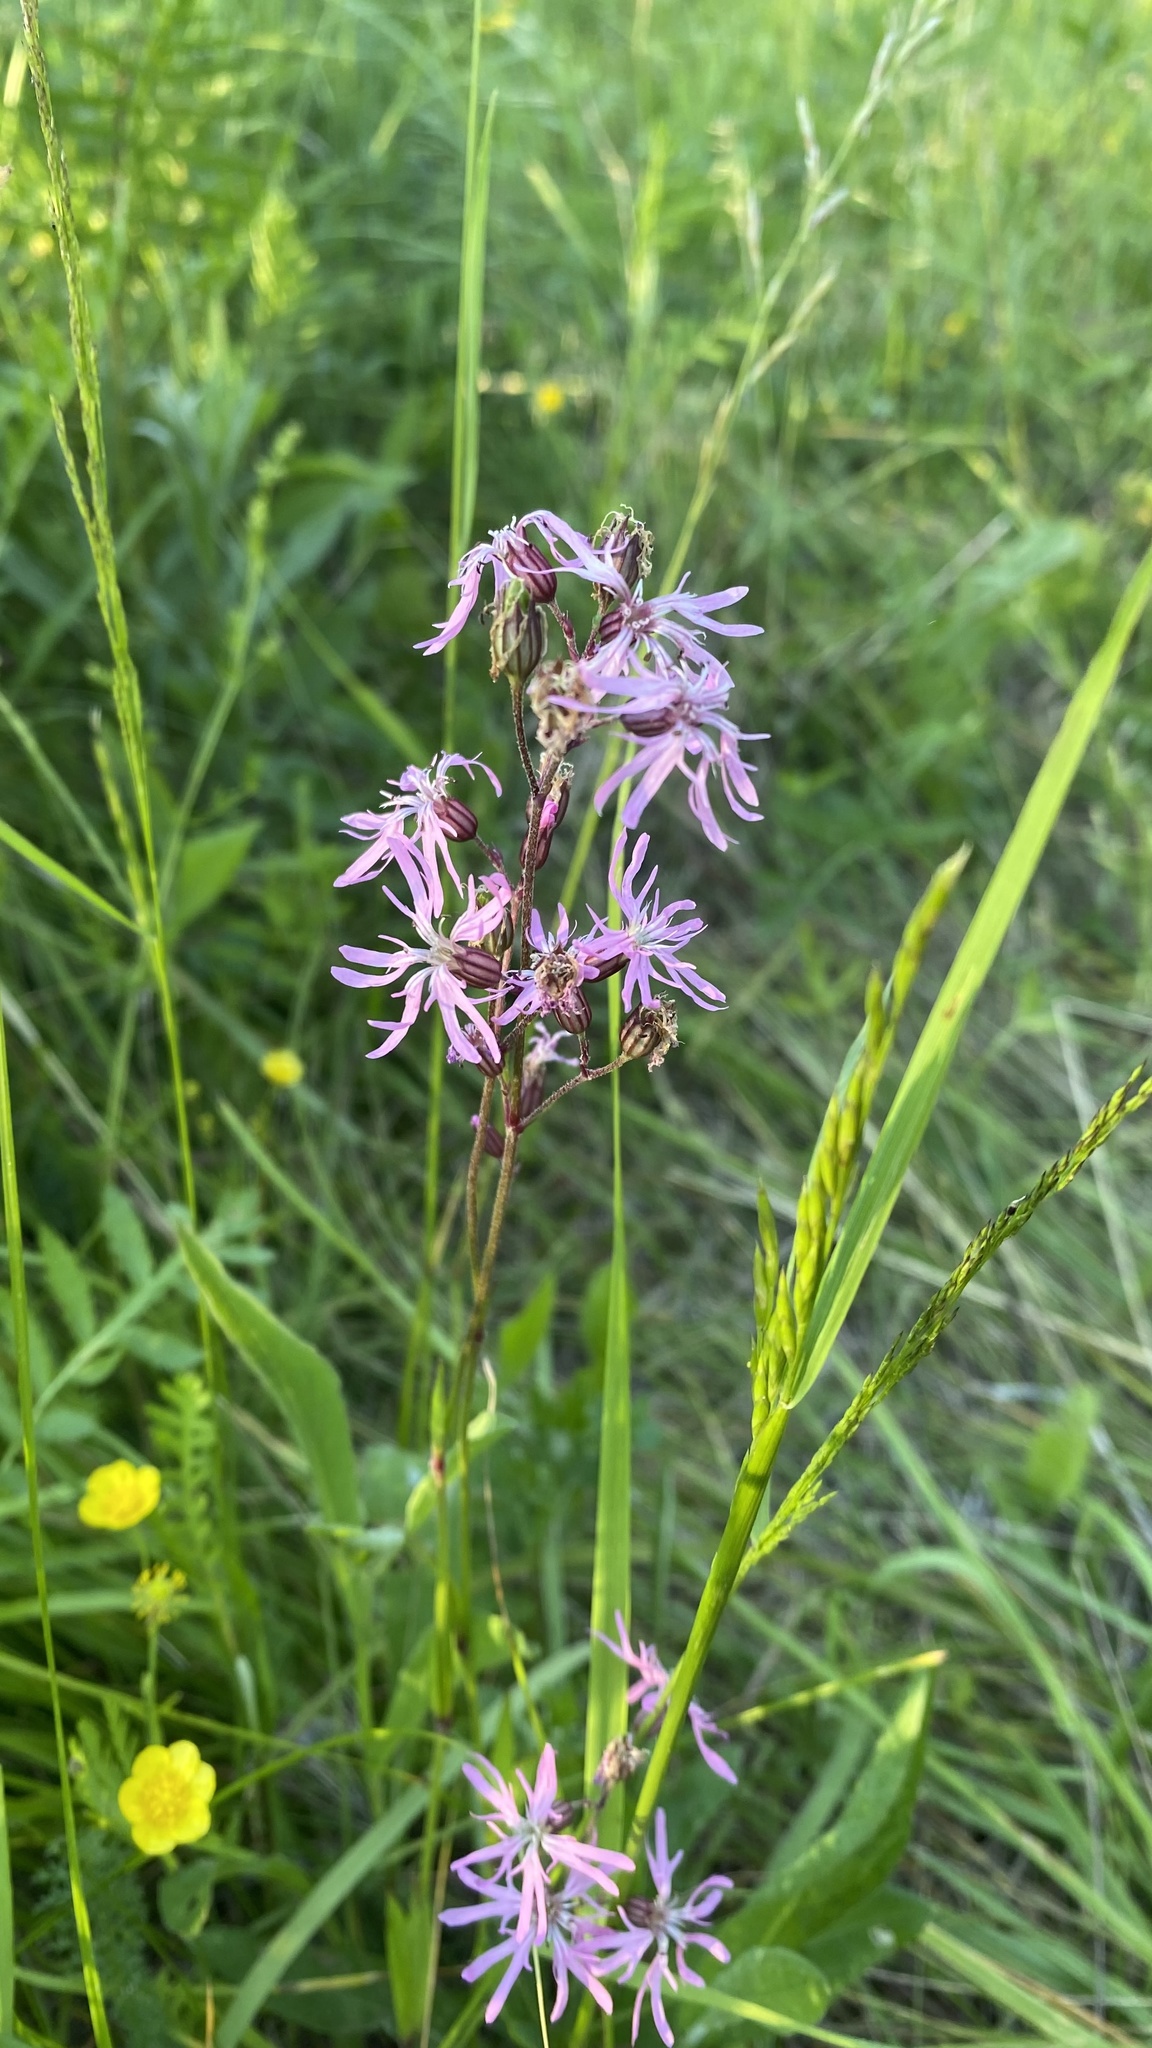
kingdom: Plantae
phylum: Tracheophyta
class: Magnoliopsida
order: Caryophyllales
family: Caryophyllaceae
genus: Silene
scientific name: Silene flos-cuculi
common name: Ragged-robin
